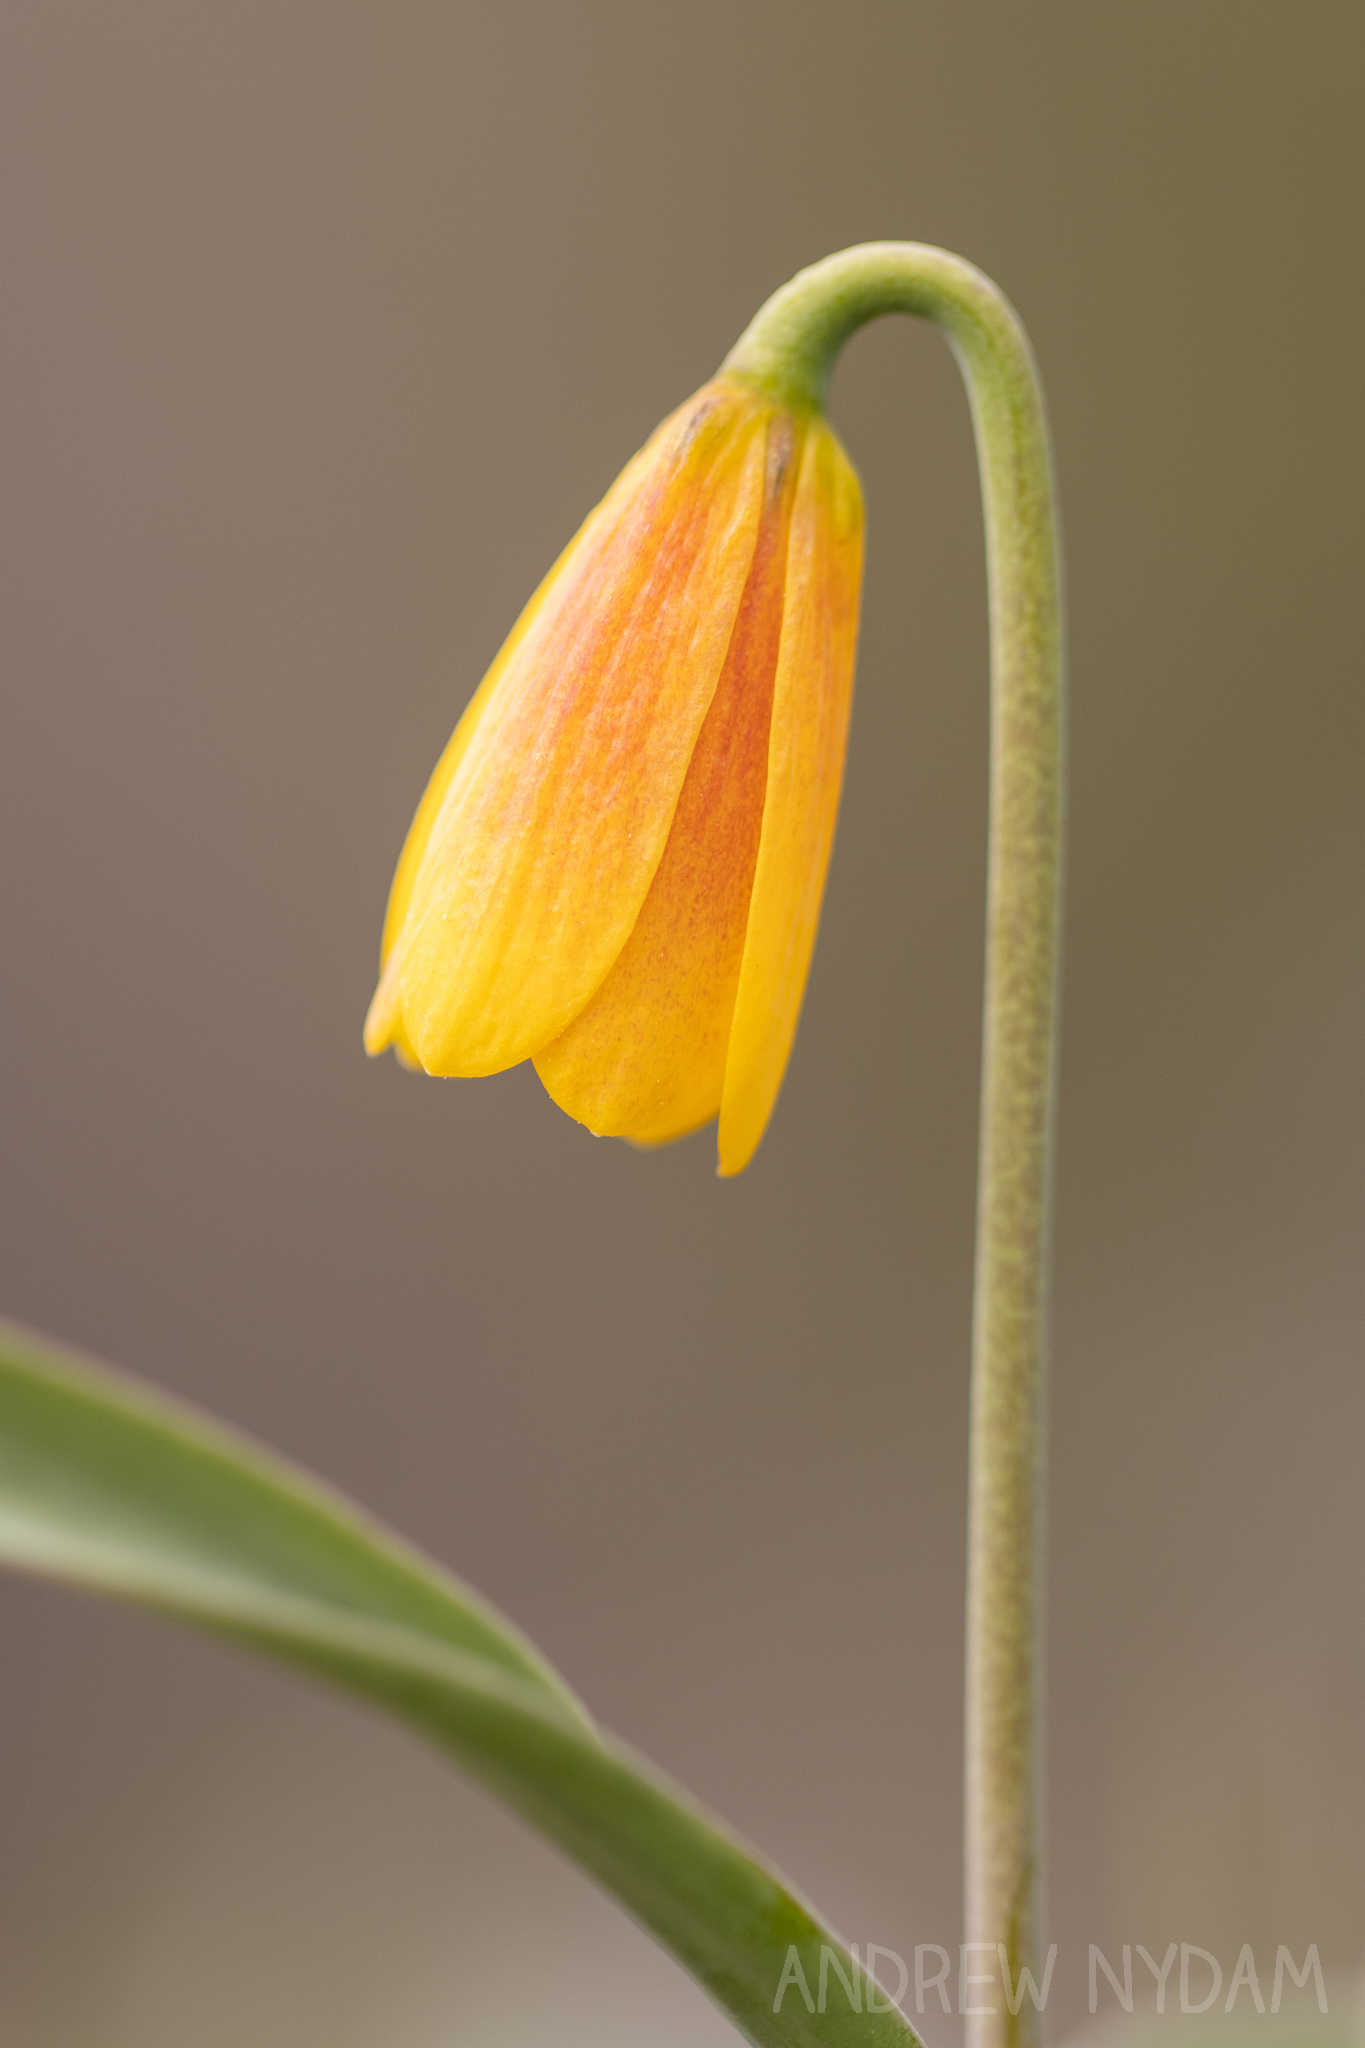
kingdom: Plantae
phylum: Tracheophyta
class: Liliopsida
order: Liliales
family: Liliaceae
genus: Fritillaria
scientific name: Fritillaria pudica
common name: Yellow fritillary
